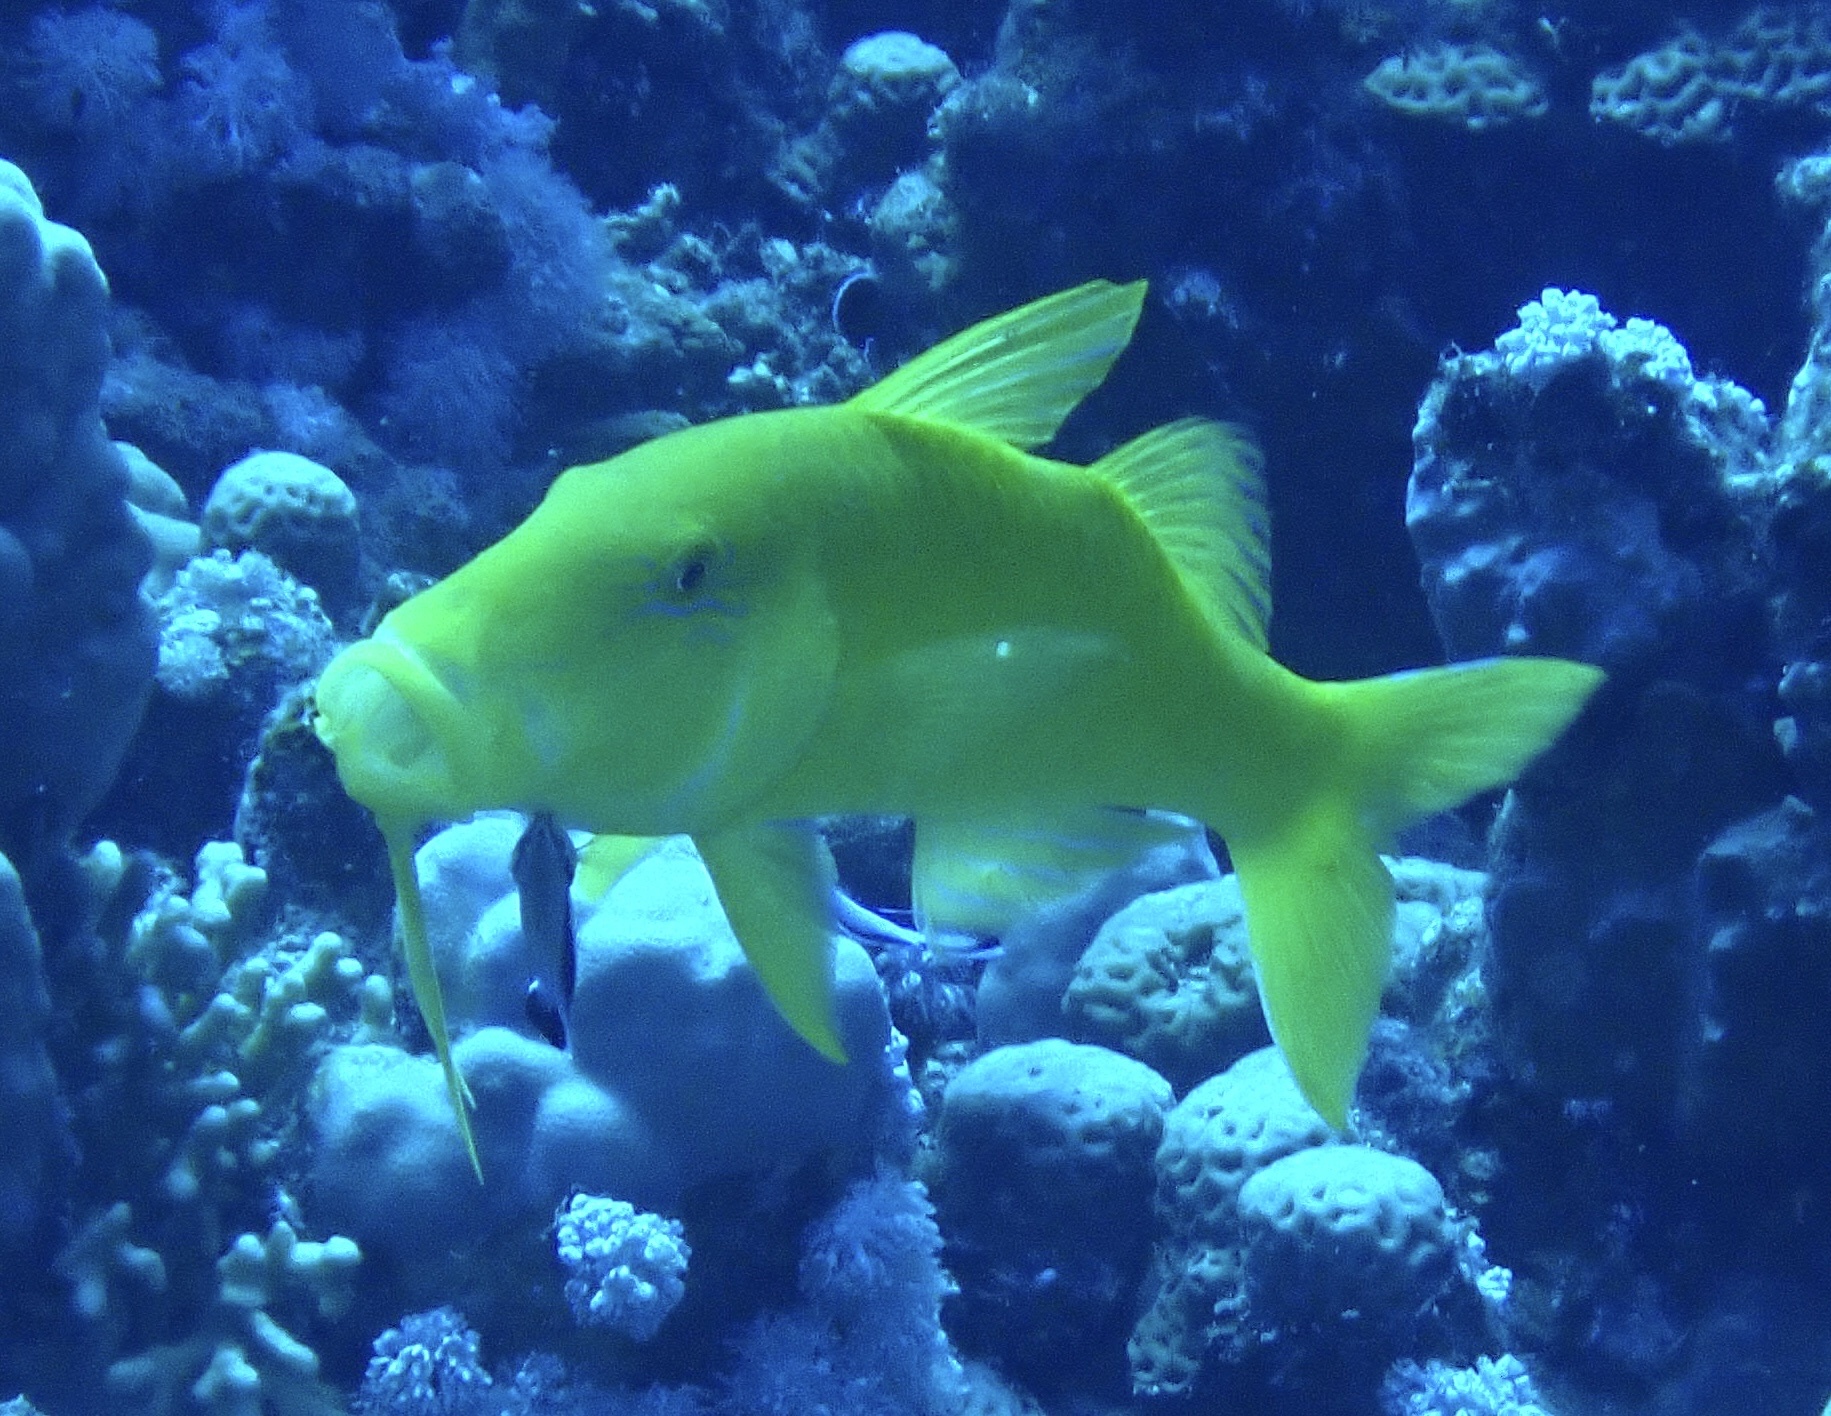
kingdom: Animalia
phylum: Chordata
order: Perciformes
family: Mullidae
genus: Parupeneus
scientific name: Parupeneus cyclostomus
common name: Goldsaddle goatfish
